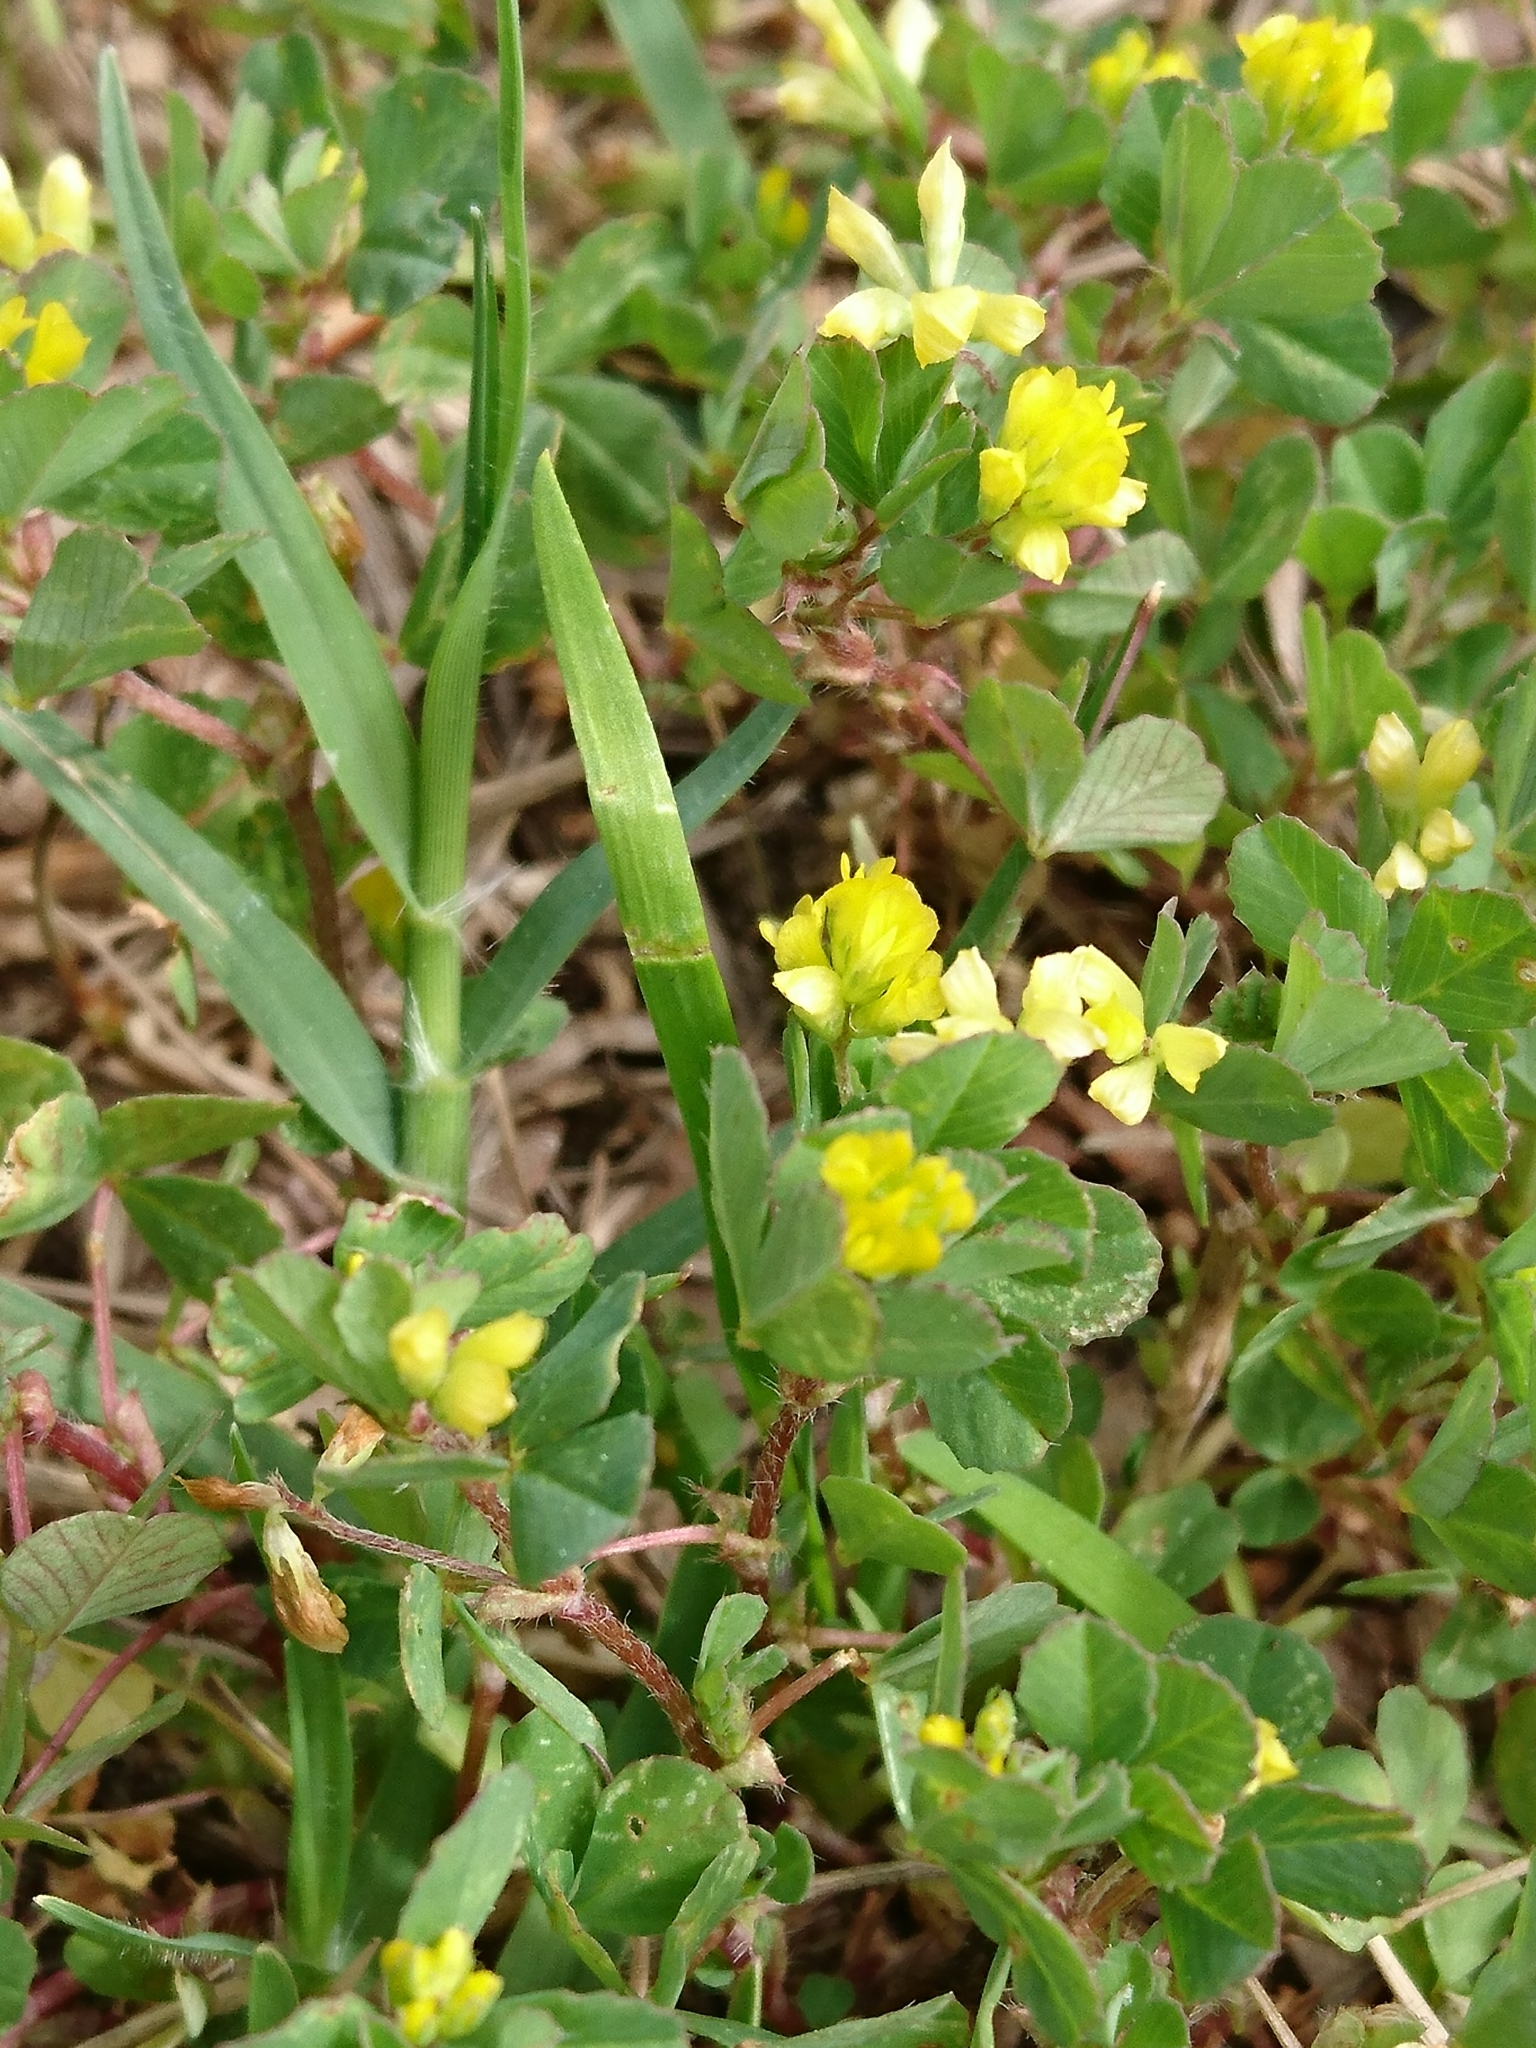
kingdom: Plantae
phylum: Tracheophyta
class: Magnoliopsida
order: Fabales
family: Fabaceae
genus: Trifolium
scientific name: Trifolium dubium
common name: Suckling clover
